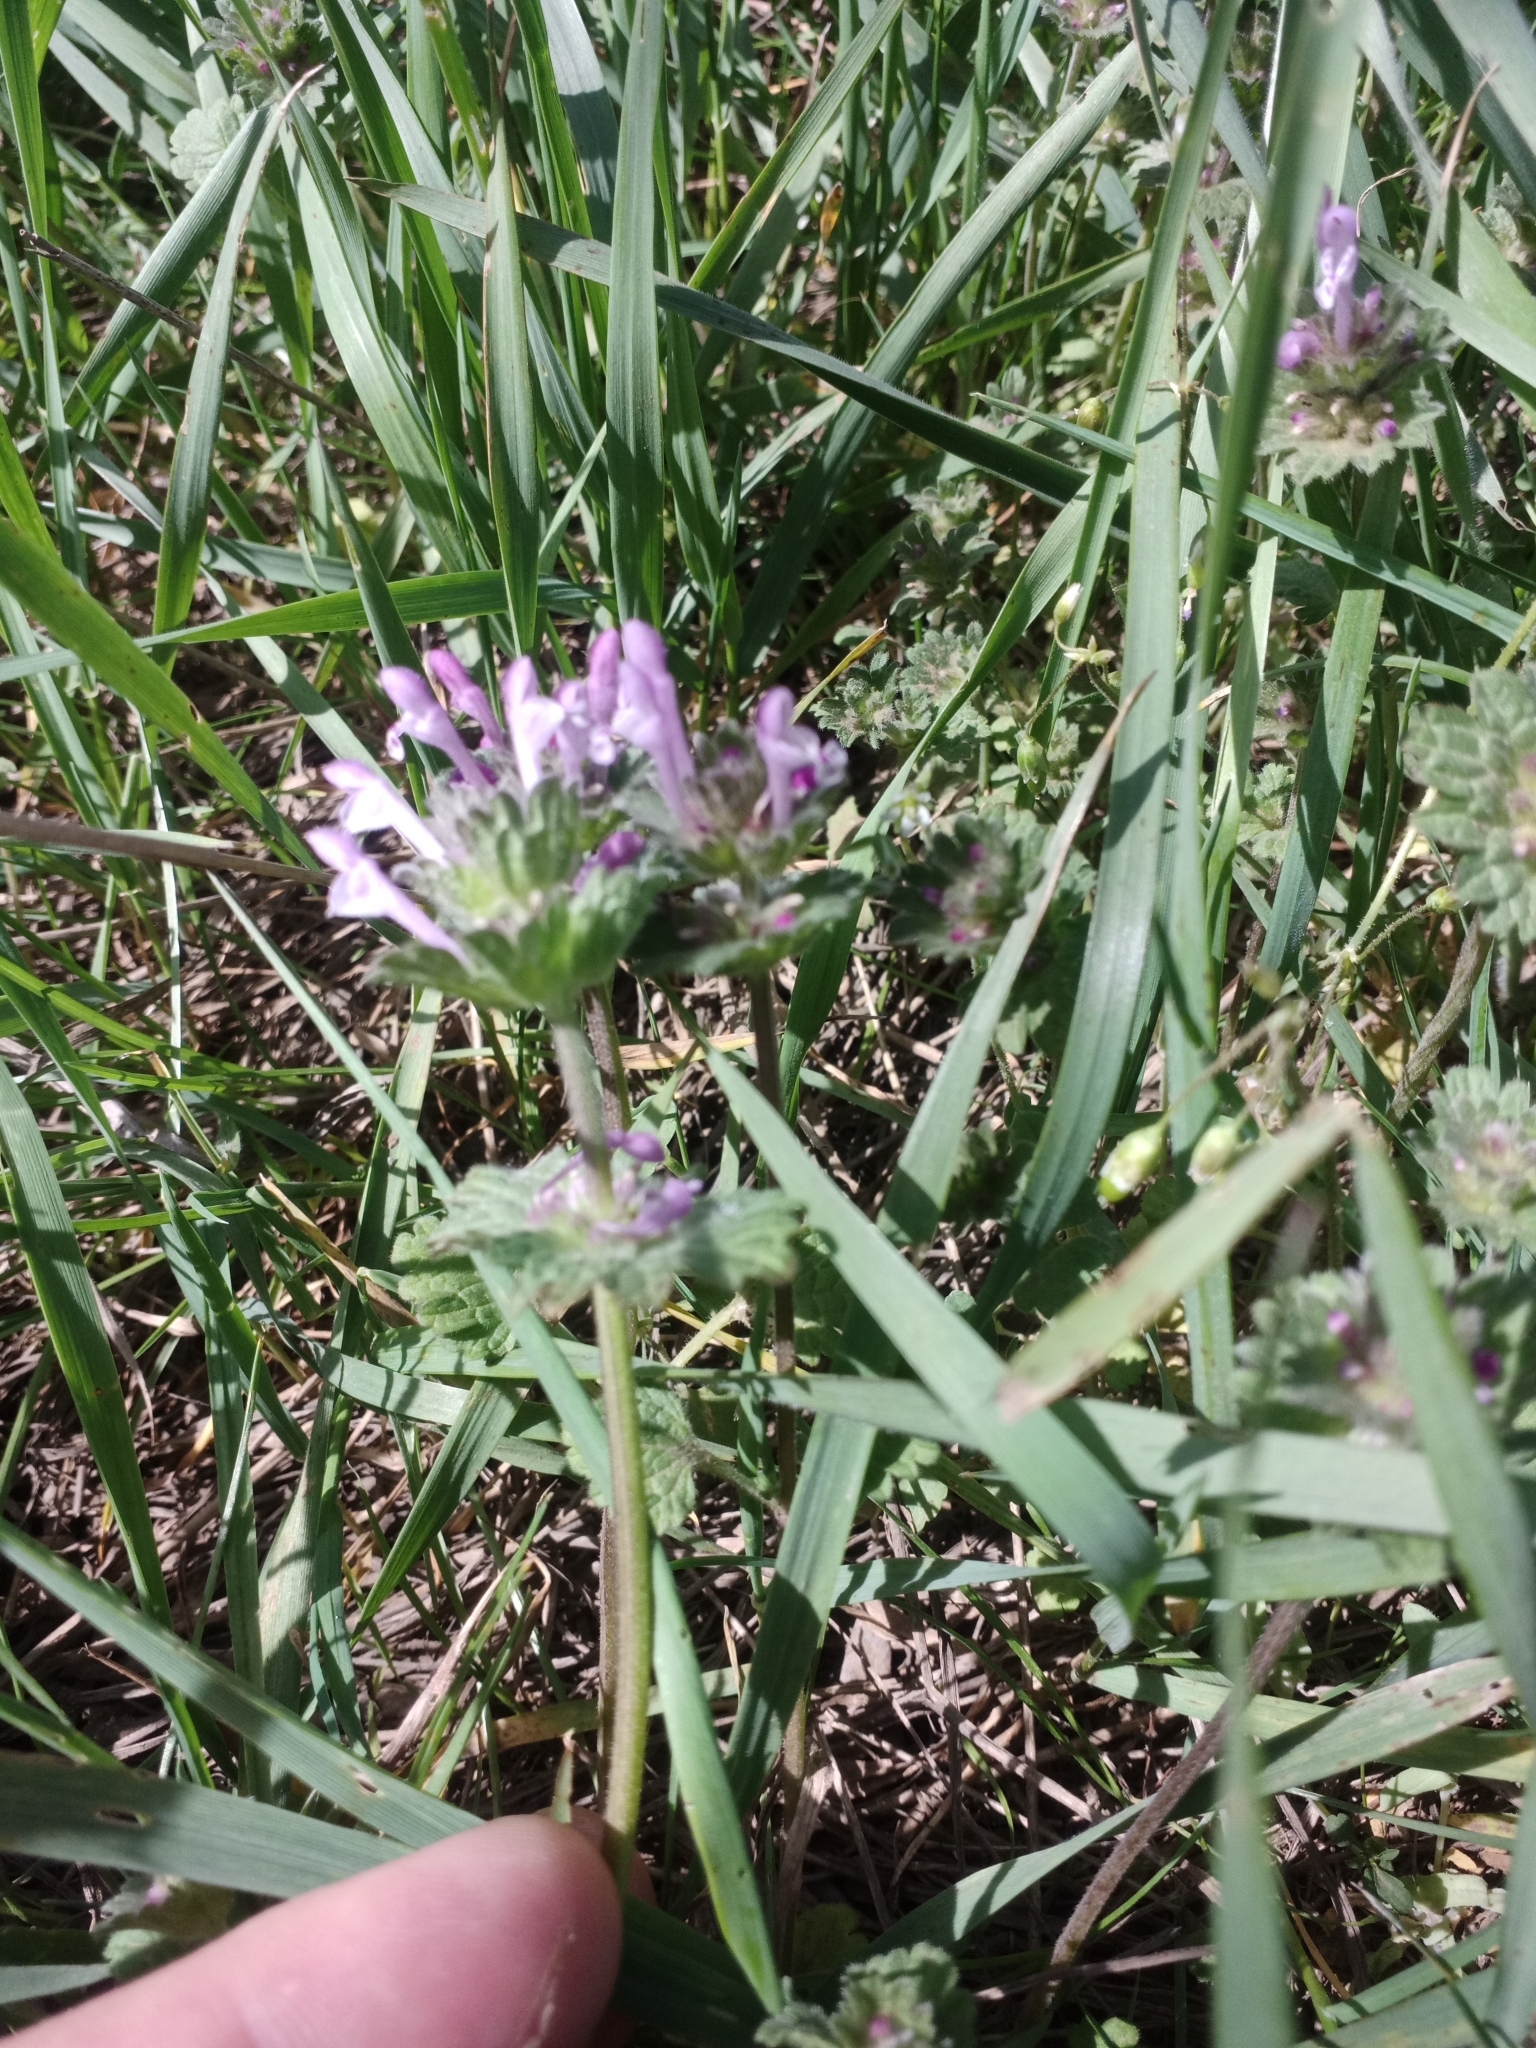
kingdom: Plantae
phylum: Tracheophyta
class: Magnoliopsida
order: Lamiales
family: Lamiaceae
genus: Lamium
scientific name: Lamium amplexicaule
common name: Henbit dead-nettle
